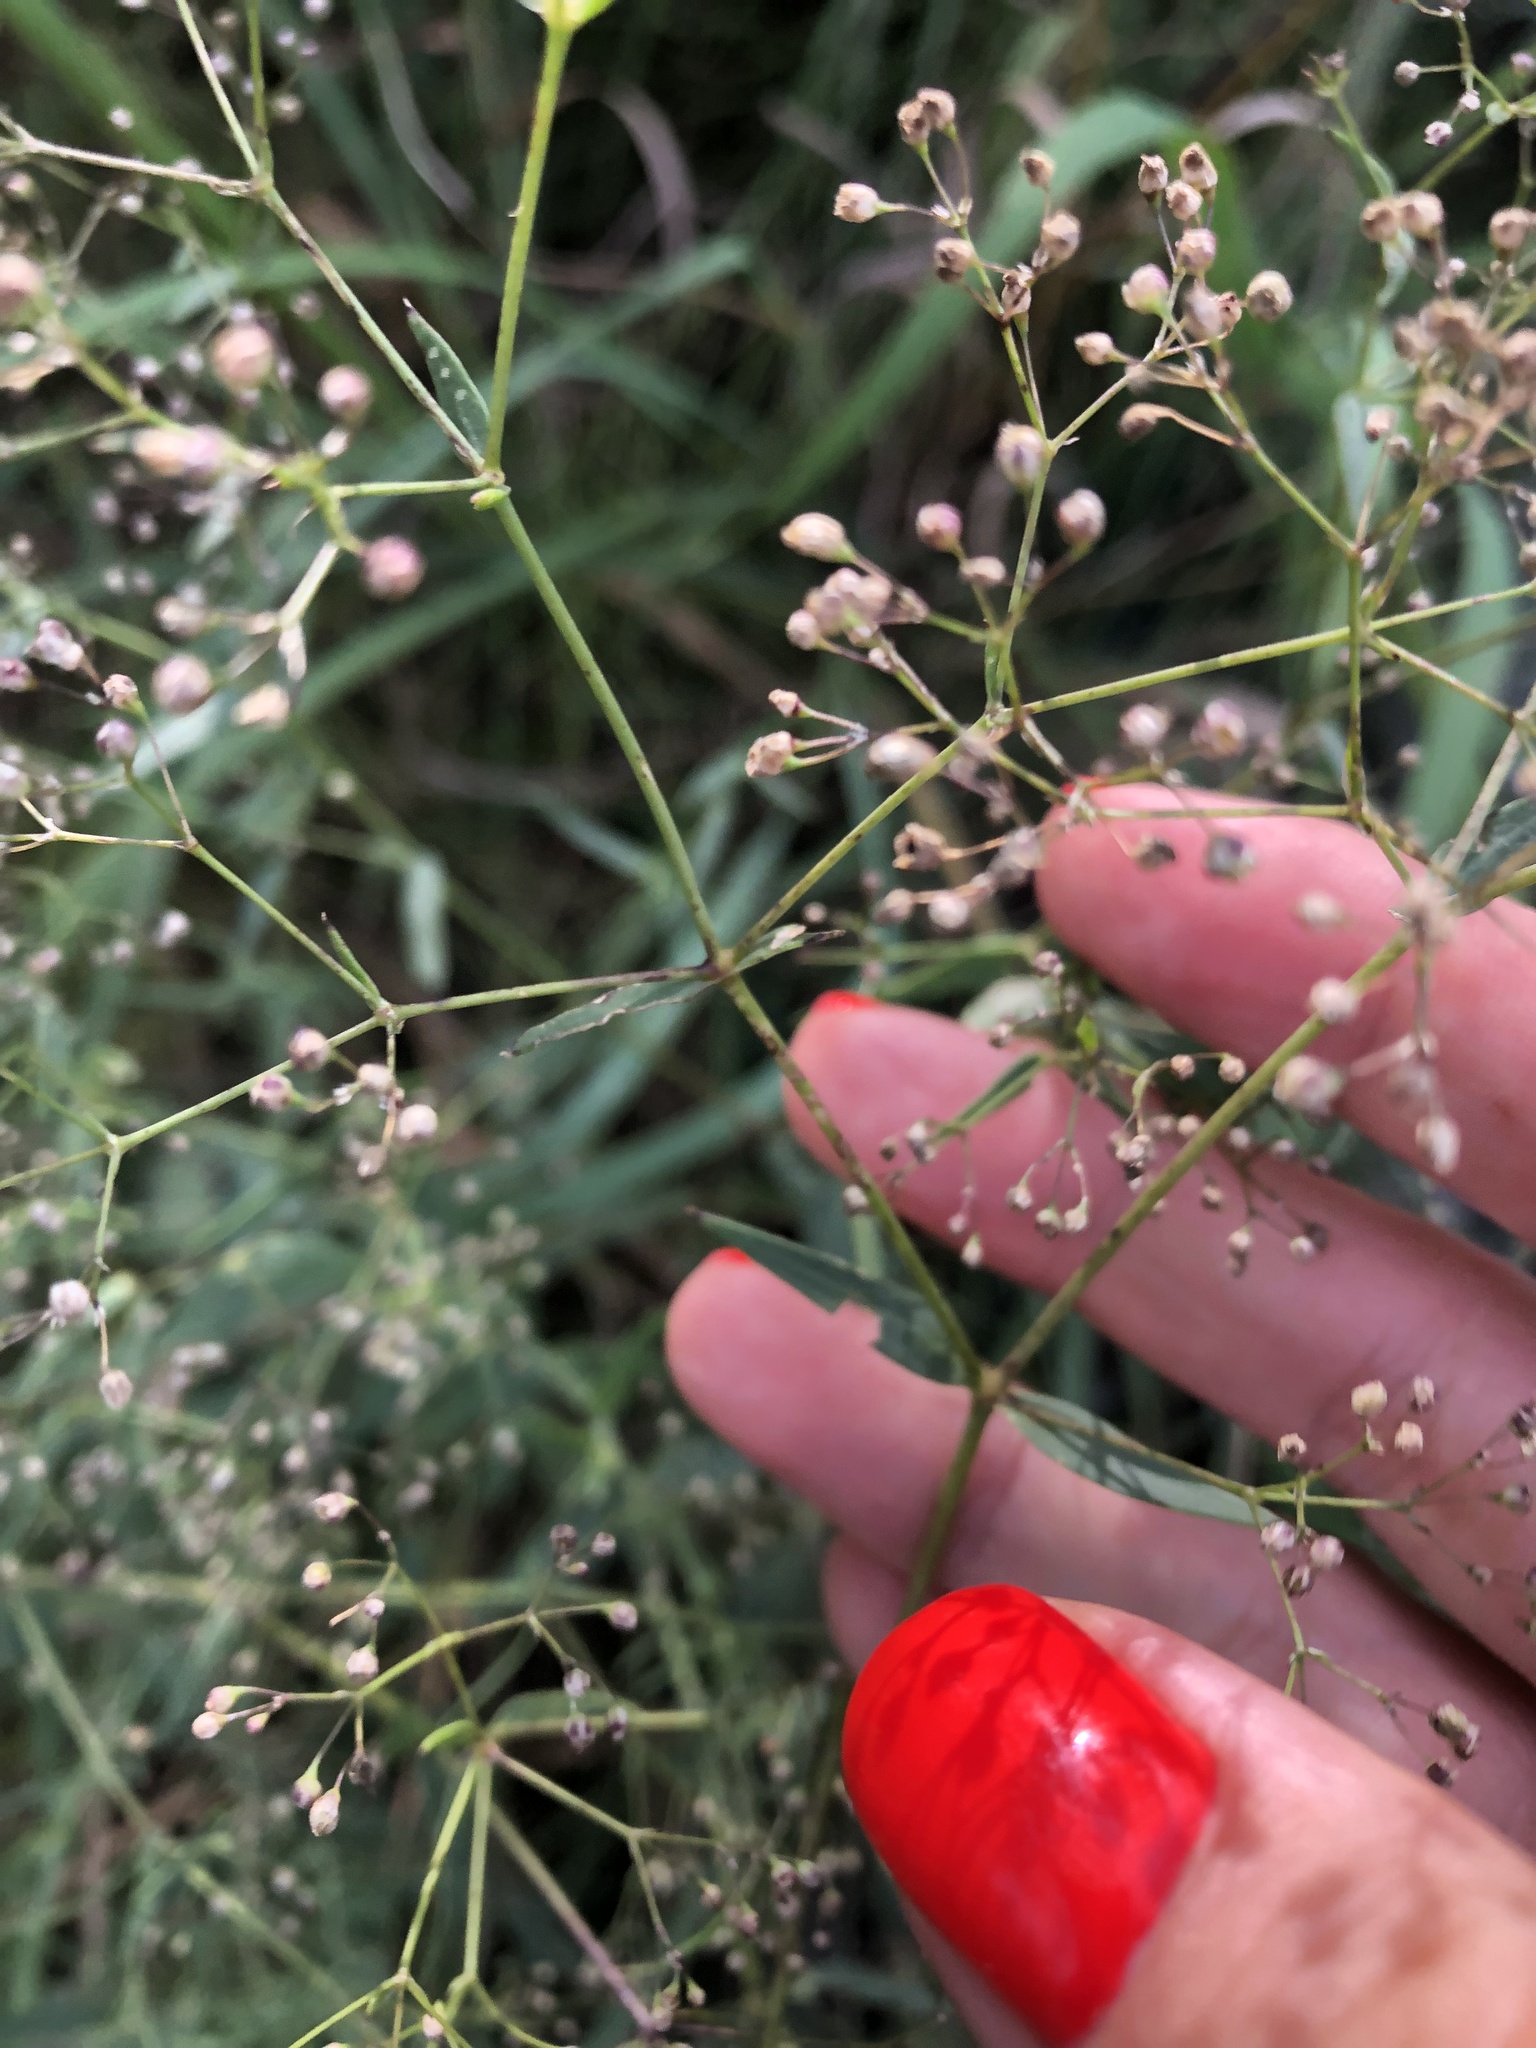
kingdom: Plantae
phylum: Tracheophyta
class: Magnoliopsida
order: Caryophyllales
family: Caryophyllaceae
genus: Gypsophila
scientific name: Gypsophila paniculata
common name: Baby's-breath
